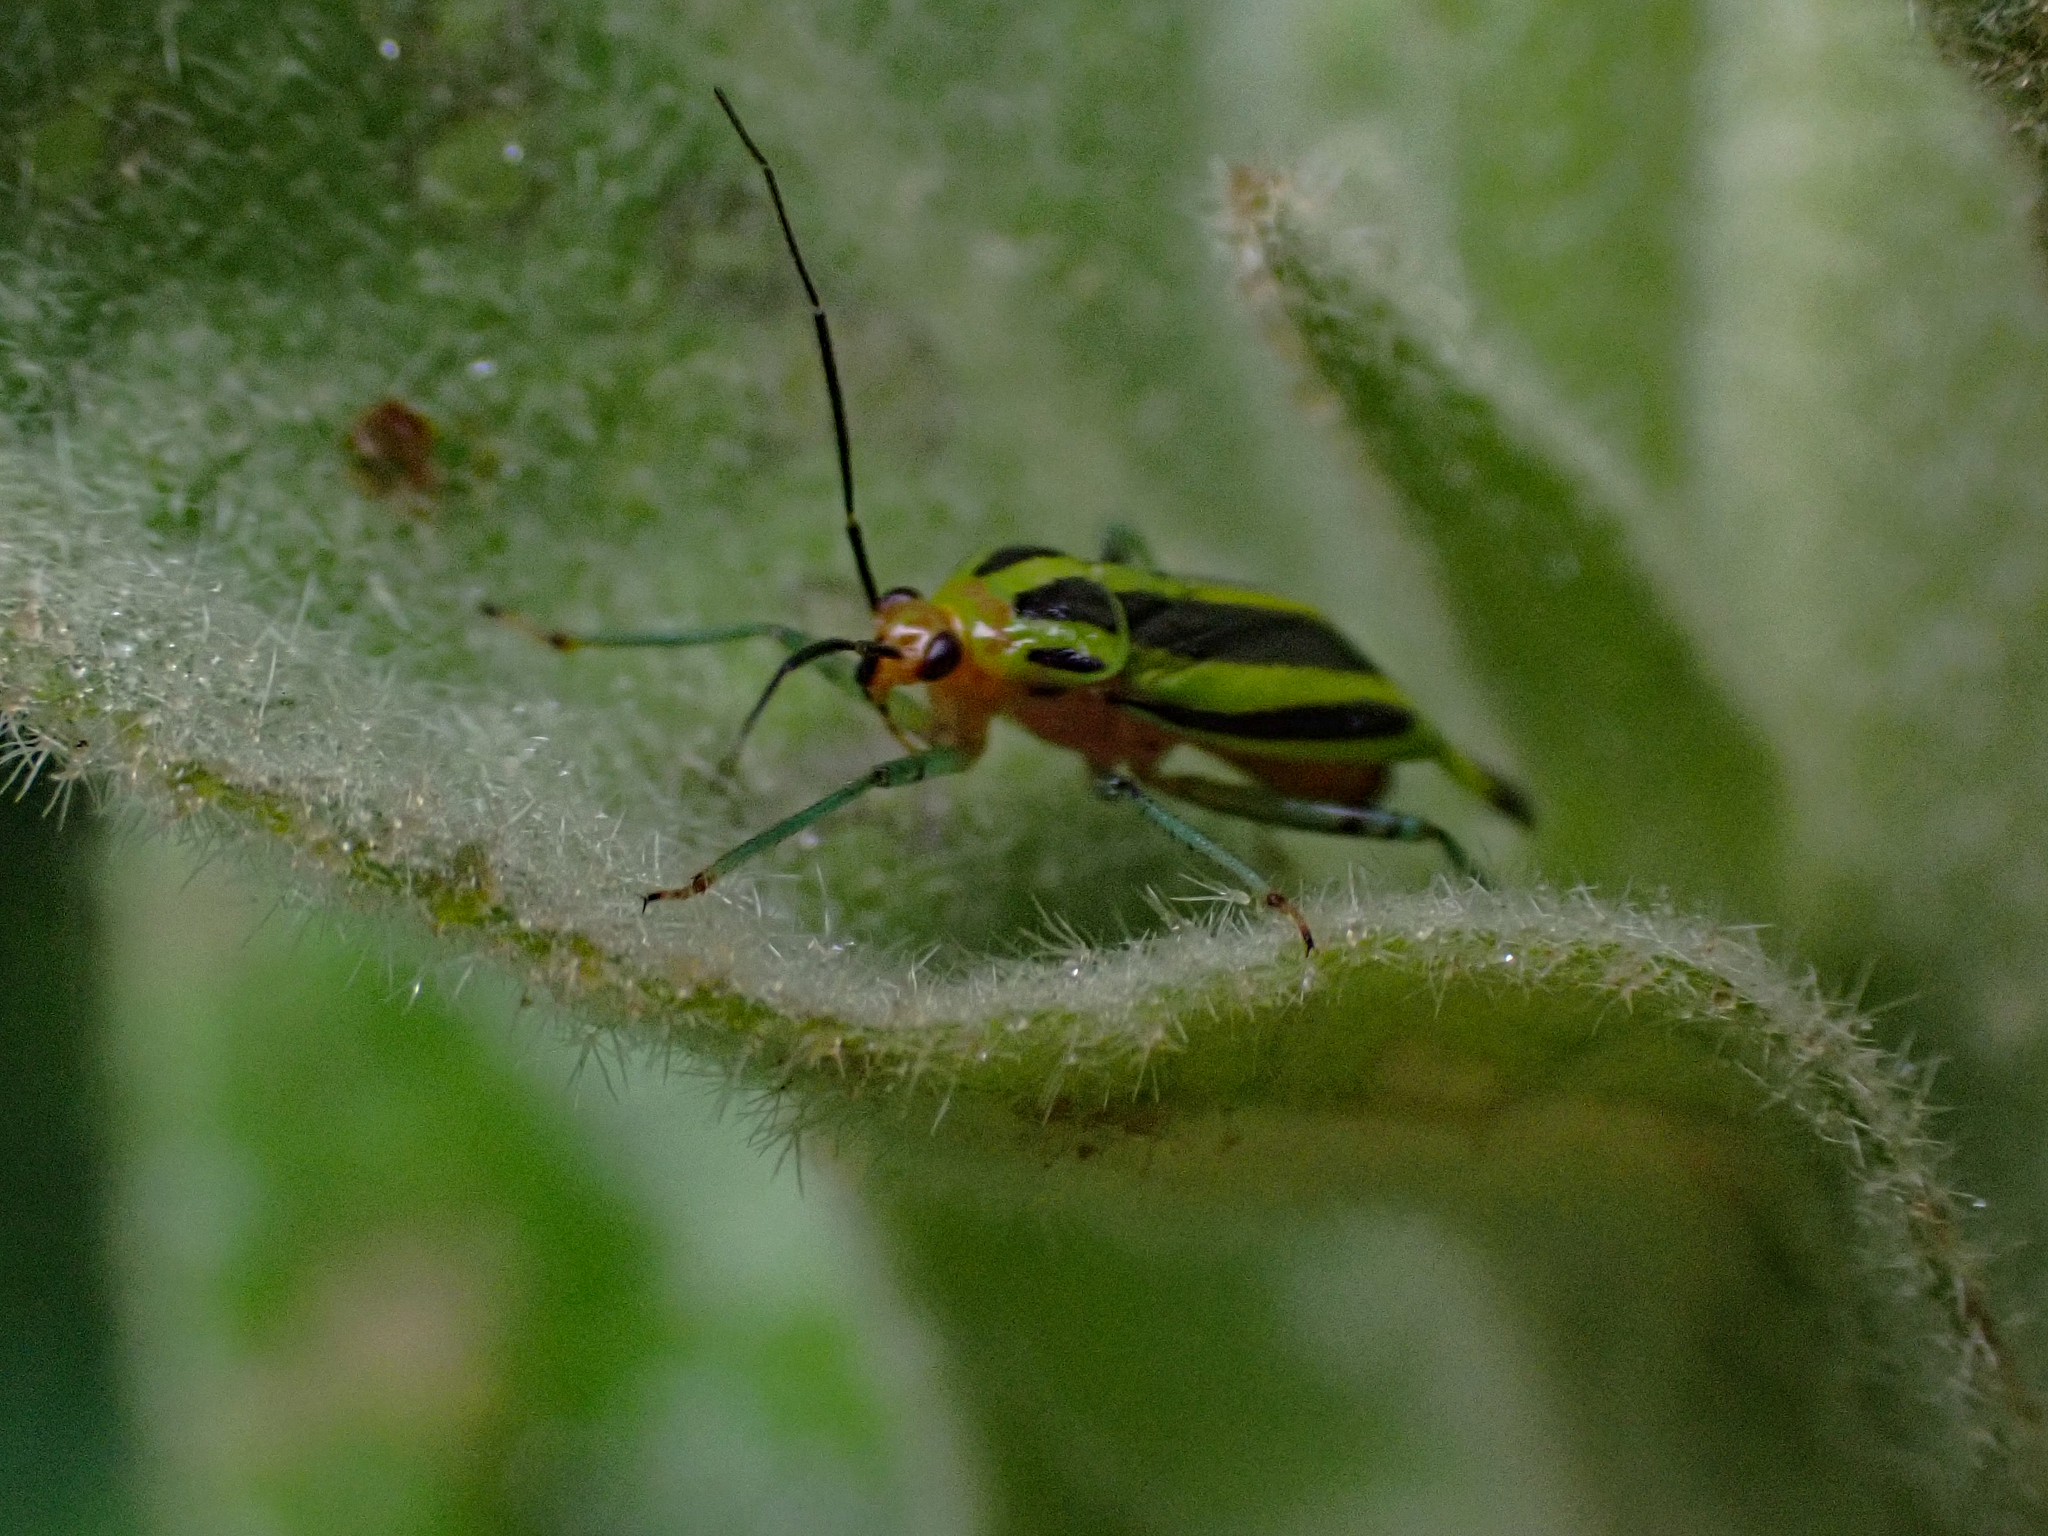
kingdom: Animalia
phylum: Arthropoda
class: Insecta
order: Hemiptera
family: Miridae
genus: Poecilocapsus
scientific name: Poecilocapsus lineatus
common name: Four-lined plant bug
